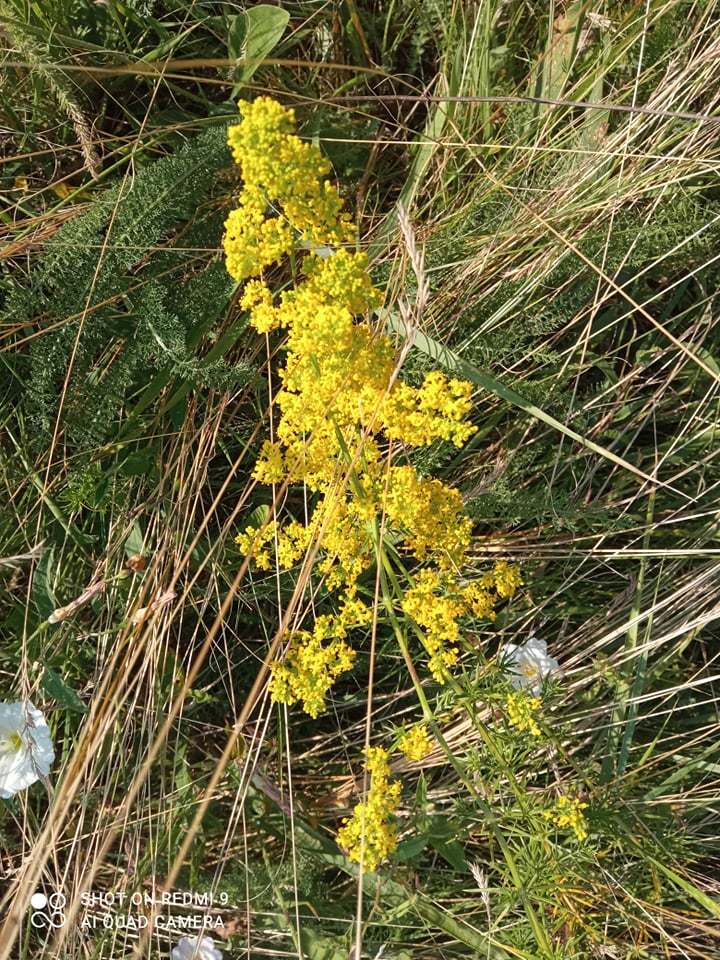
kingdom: Plantae
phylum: Tracheophyta
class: Magnoliopsida
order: Gentianales
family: Rubiaceae
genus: Galium
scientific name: Galium verum
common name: Lady's bedstraw
